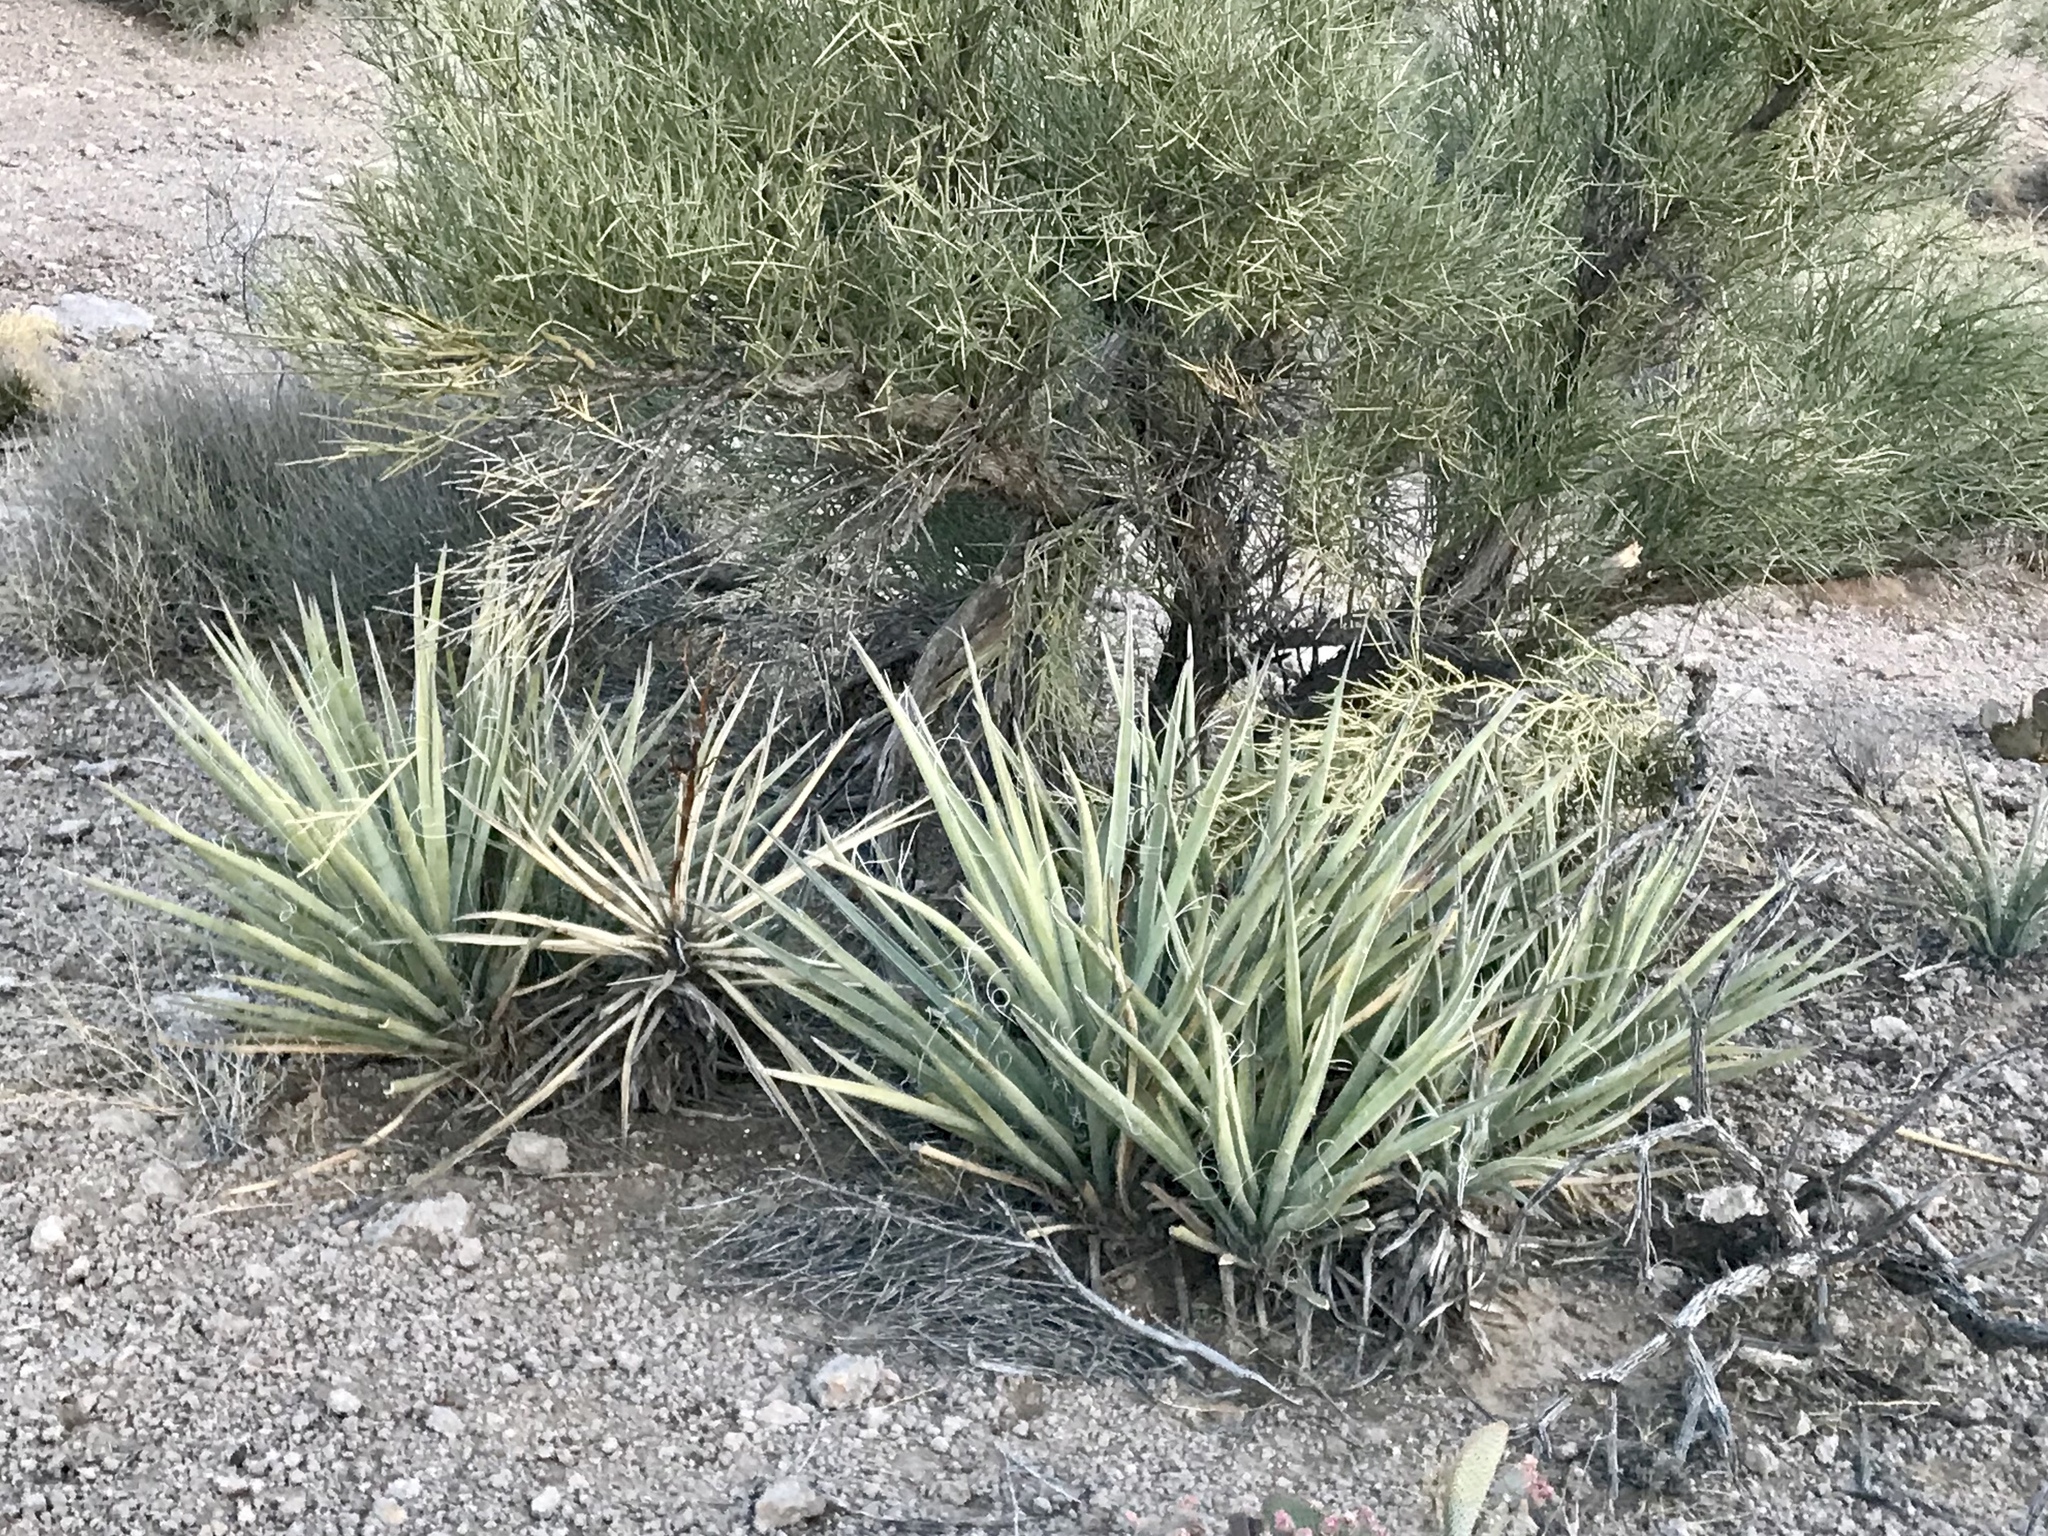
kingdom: Plantae
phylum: Tracheophyta
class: Liliopsida
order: Asparagales
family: Asparagaceae
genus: Yucca
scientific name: Yucca baccata
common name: Banana yucca
